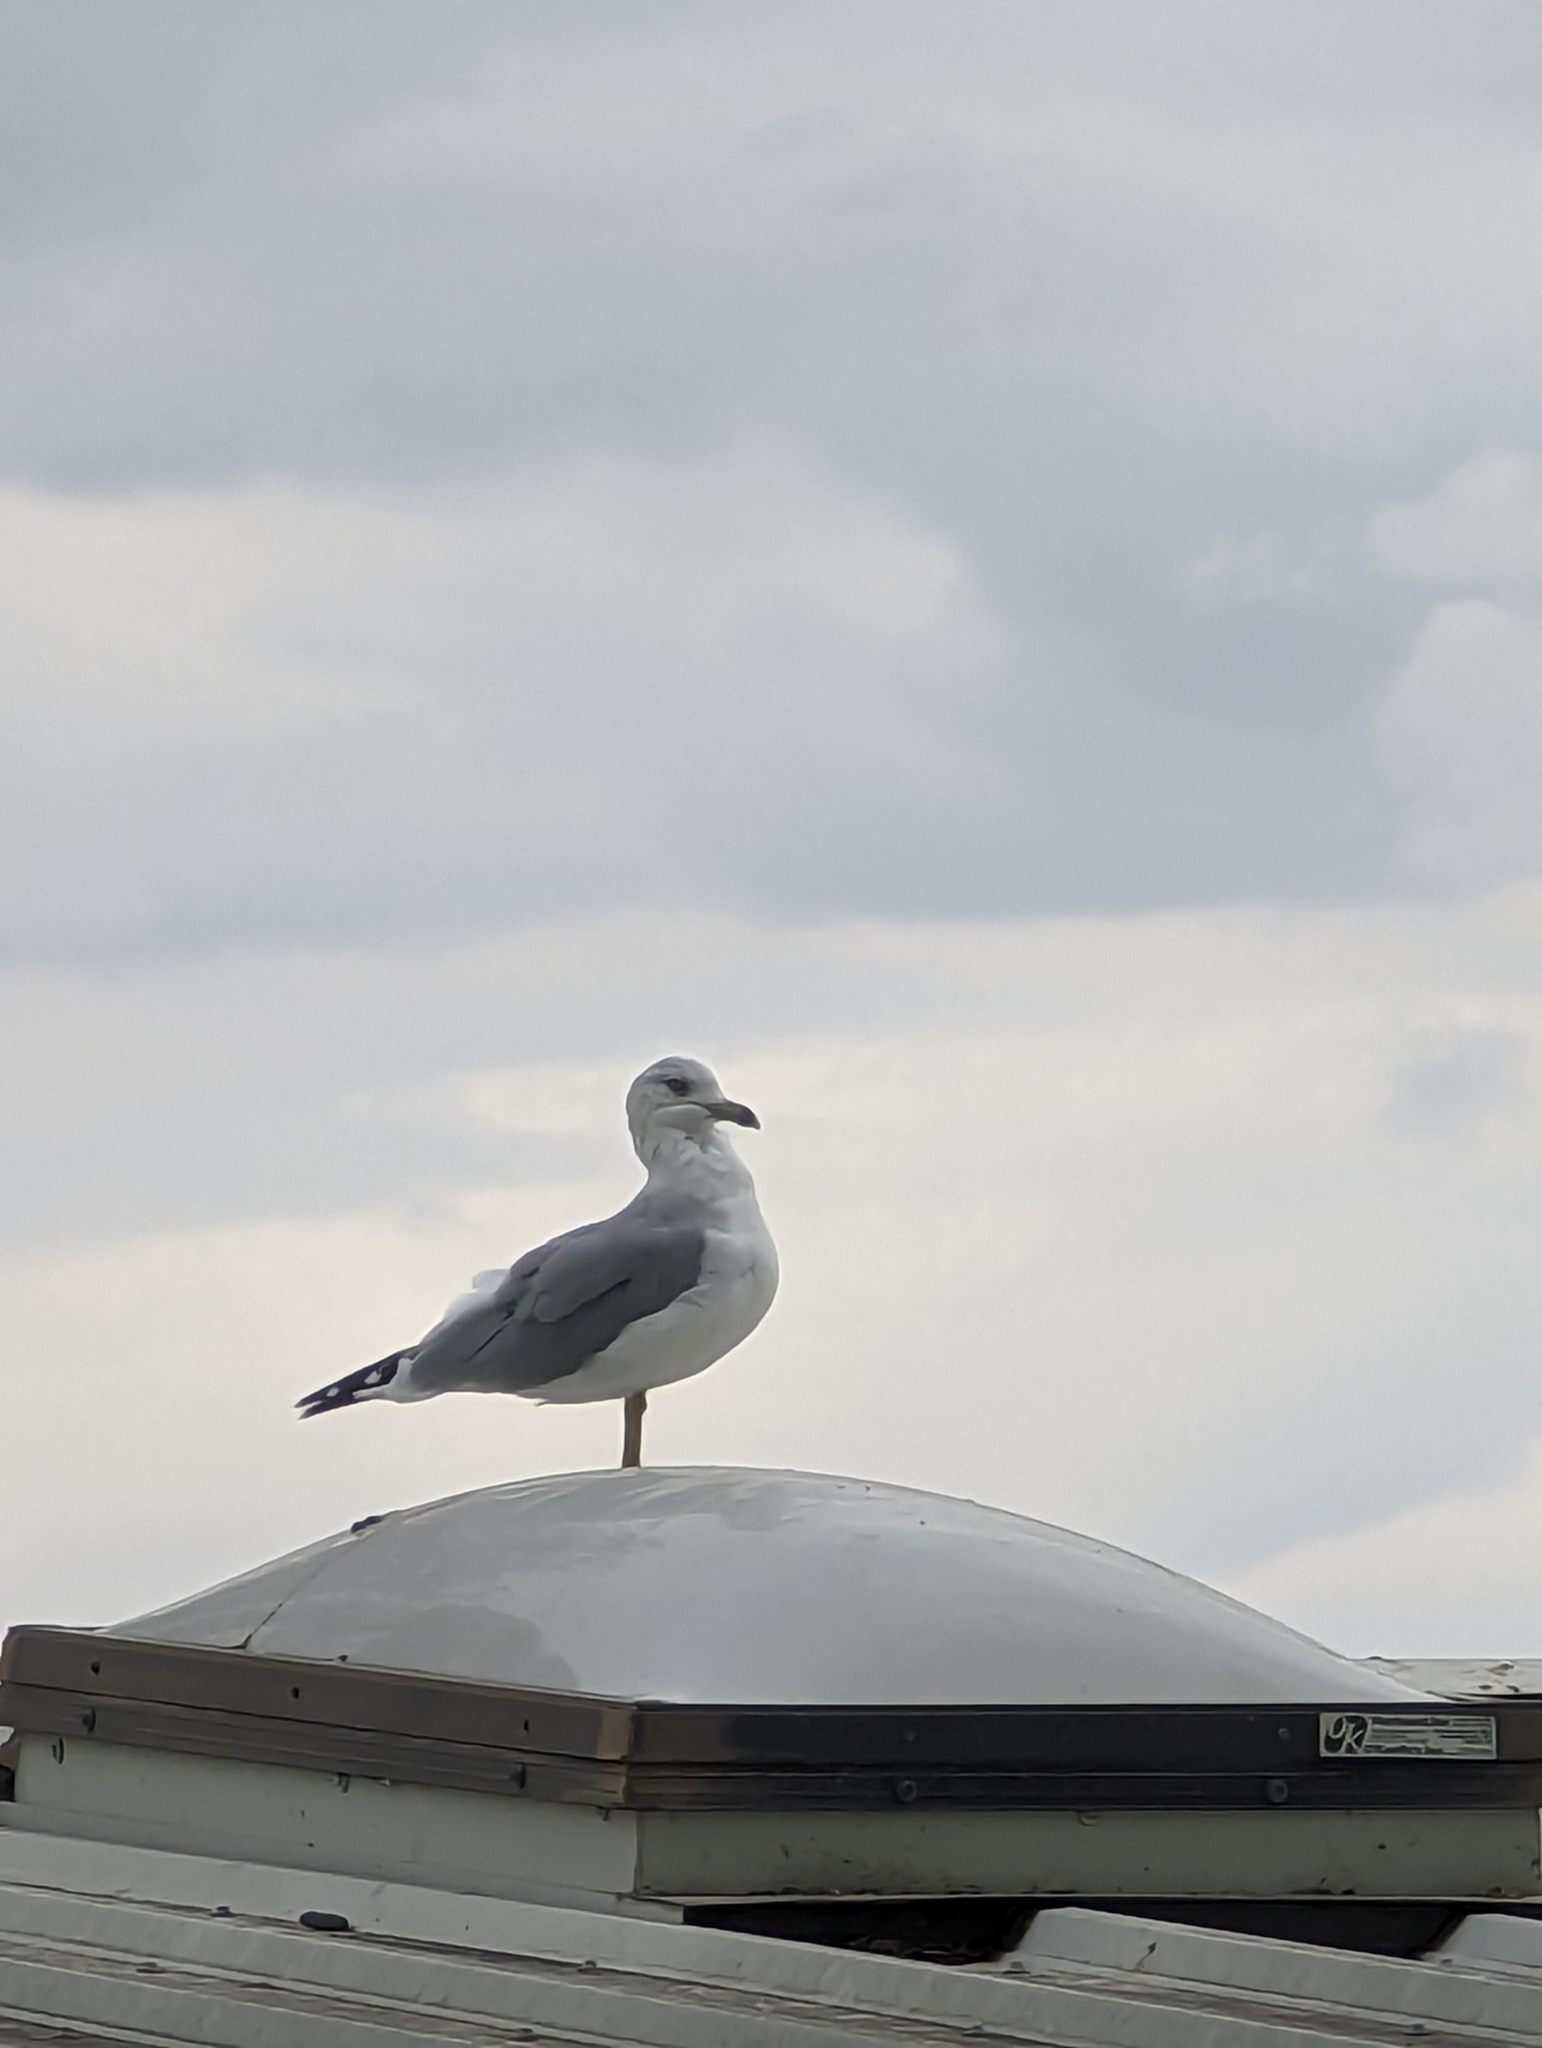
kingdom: Animalia
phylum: Chordata
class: Aves
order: Charadriiformes
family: Laridae
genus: Larus
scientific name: Larus delawarensis
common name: Ring-billed gull
